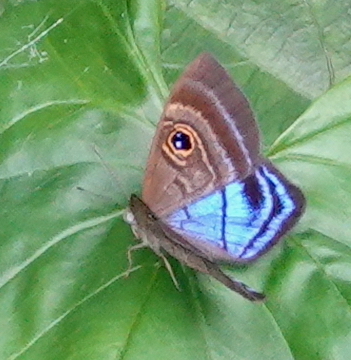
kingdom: Animalia
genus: Mesosemia
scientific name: Mesosemia lamachus
